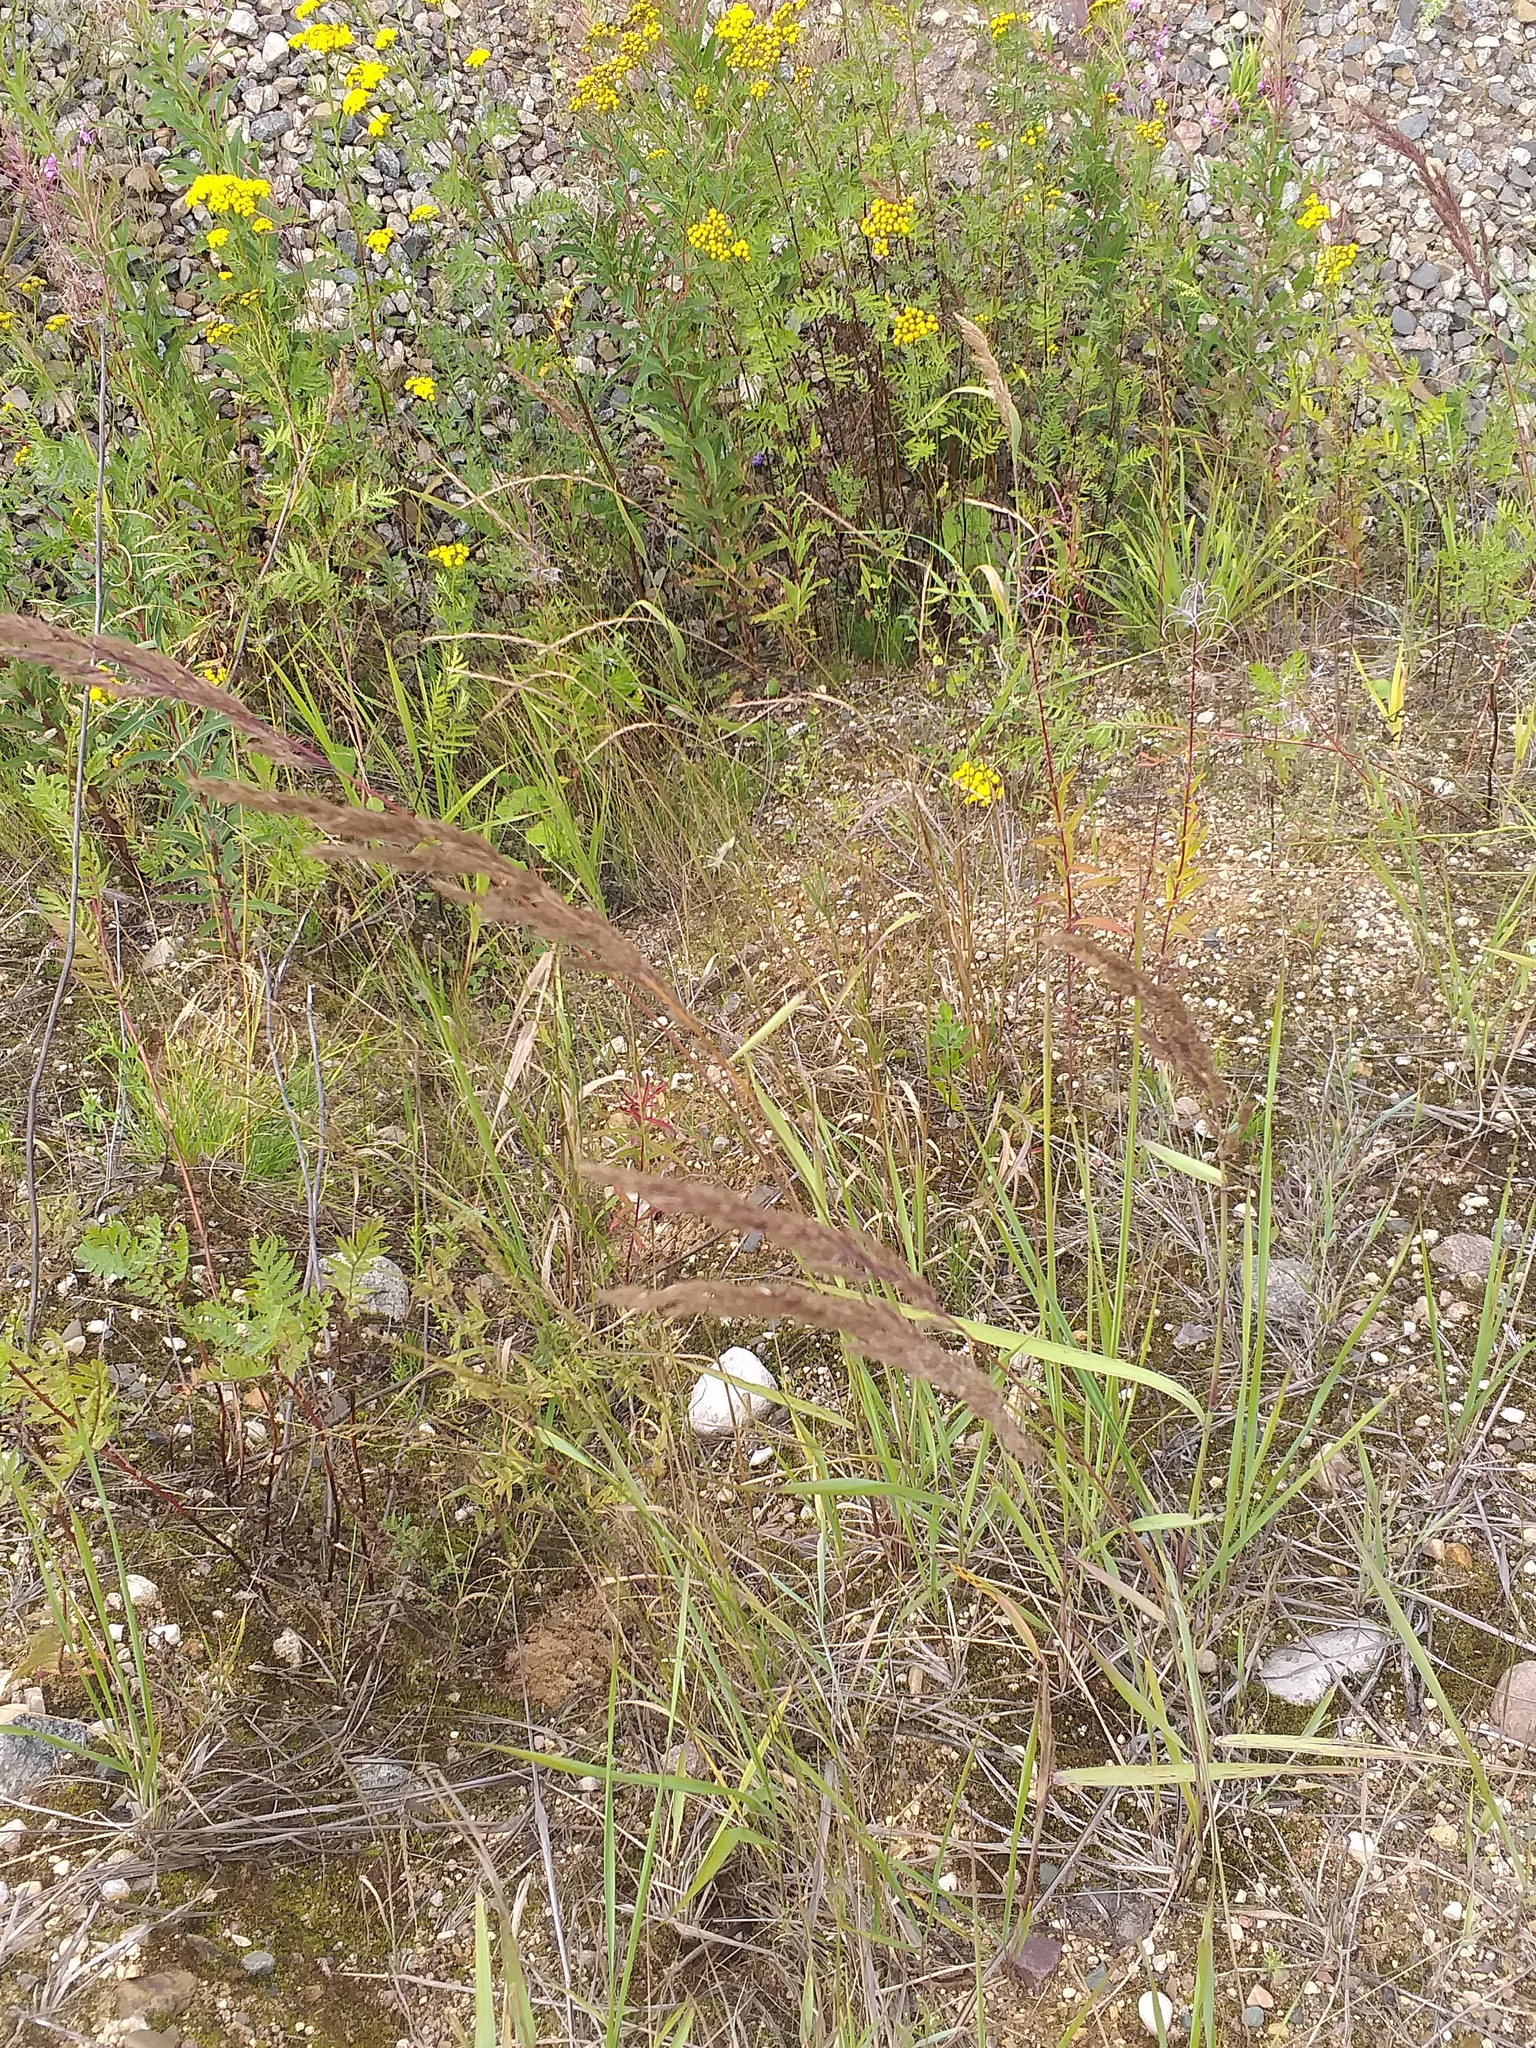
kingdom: Plantae
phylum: Tracheophyta
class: Liliopsida
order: Poales
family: Poaceae
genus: Calamagrostis
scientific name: Calamagrostis epigejos
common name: Wood small-reed
